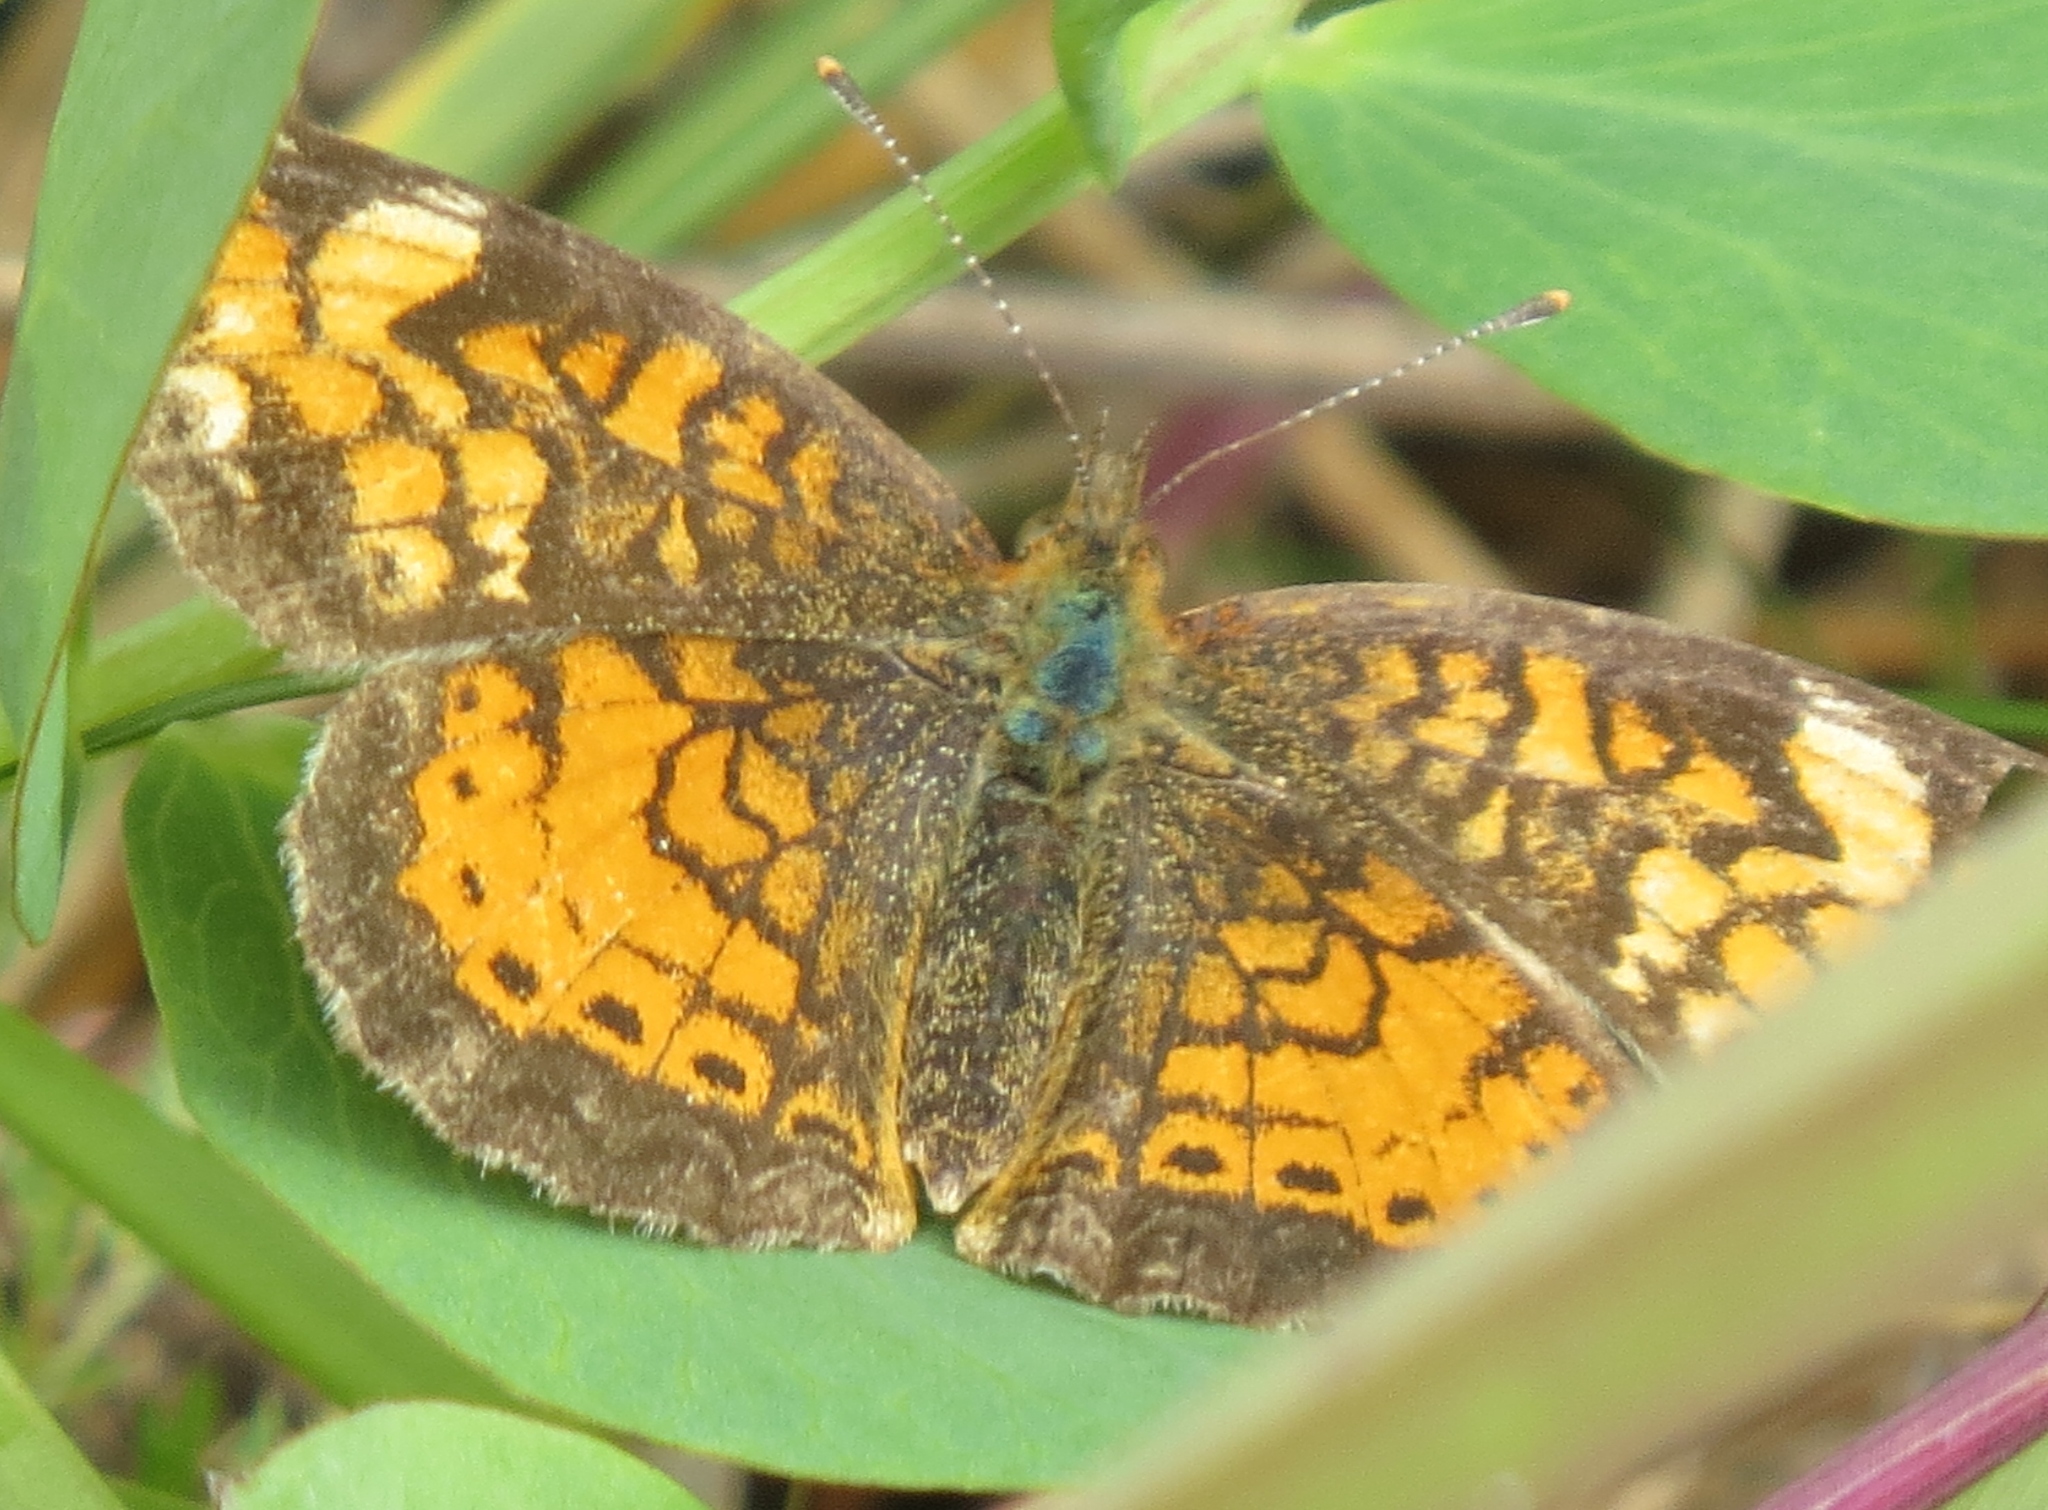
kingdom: Animalia
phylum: Arthropoda
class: Insecta
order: Lepidoptera
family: Nymphalidae
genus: Phyciodes
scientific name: Phyciodes tharos
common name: Pearl crescent
